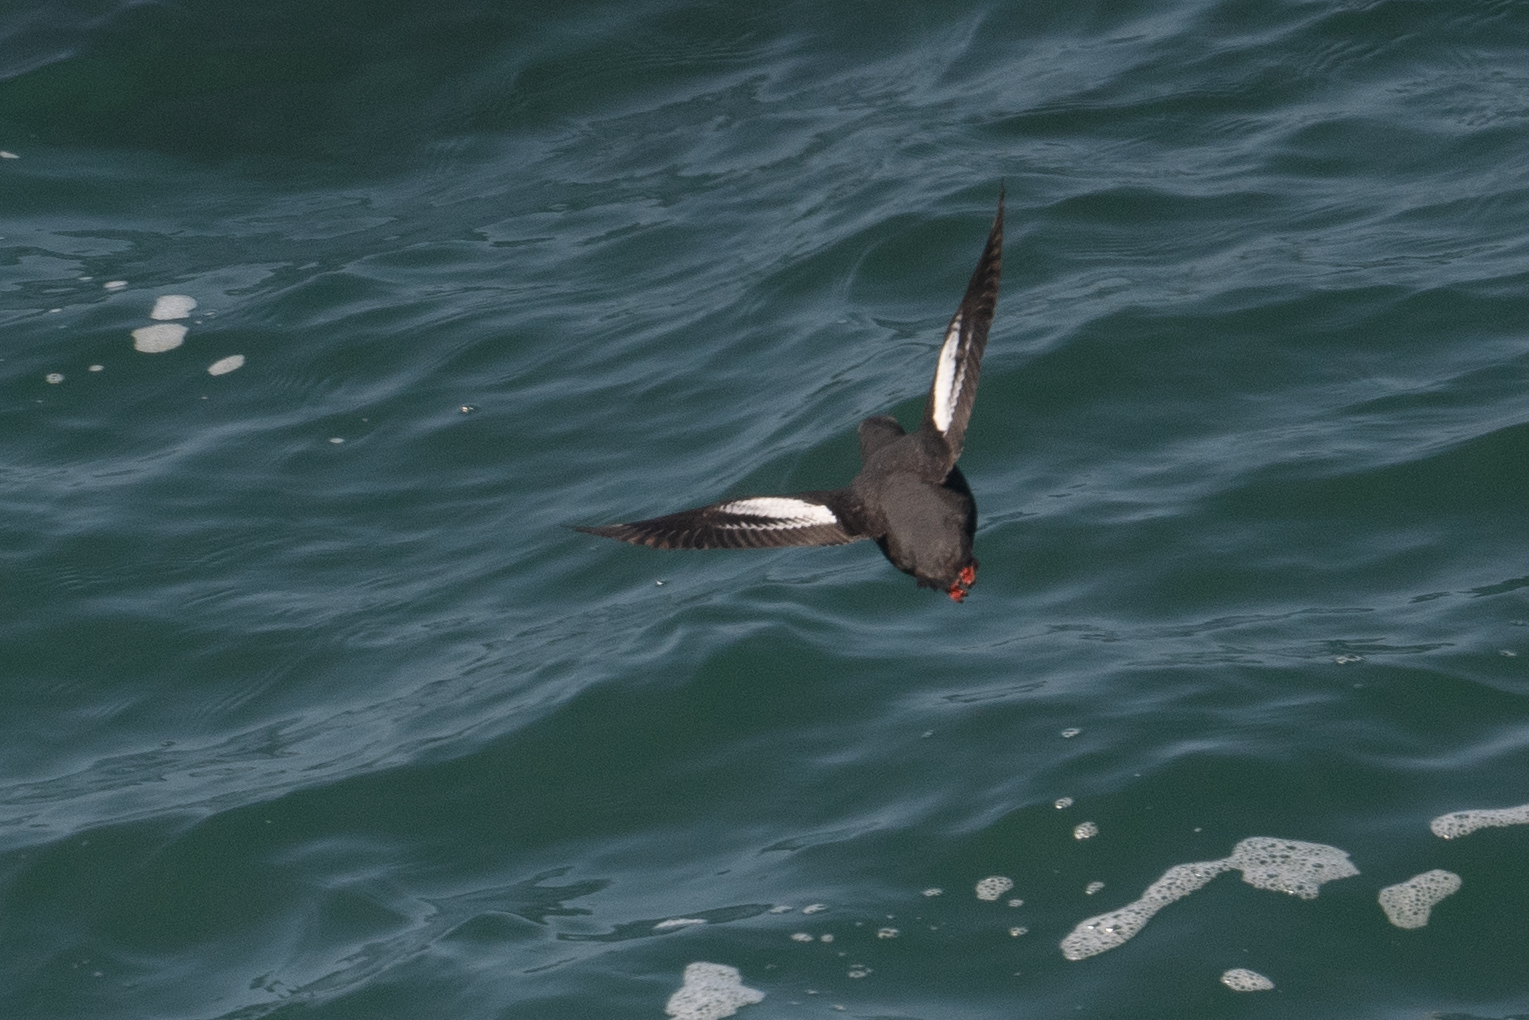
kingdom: Animalia
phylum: Chordata
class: Aves
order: Charadriiformes
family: Alcidae
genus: Cepphus
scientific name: Cepphus columba
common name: Pigeon guillemot
